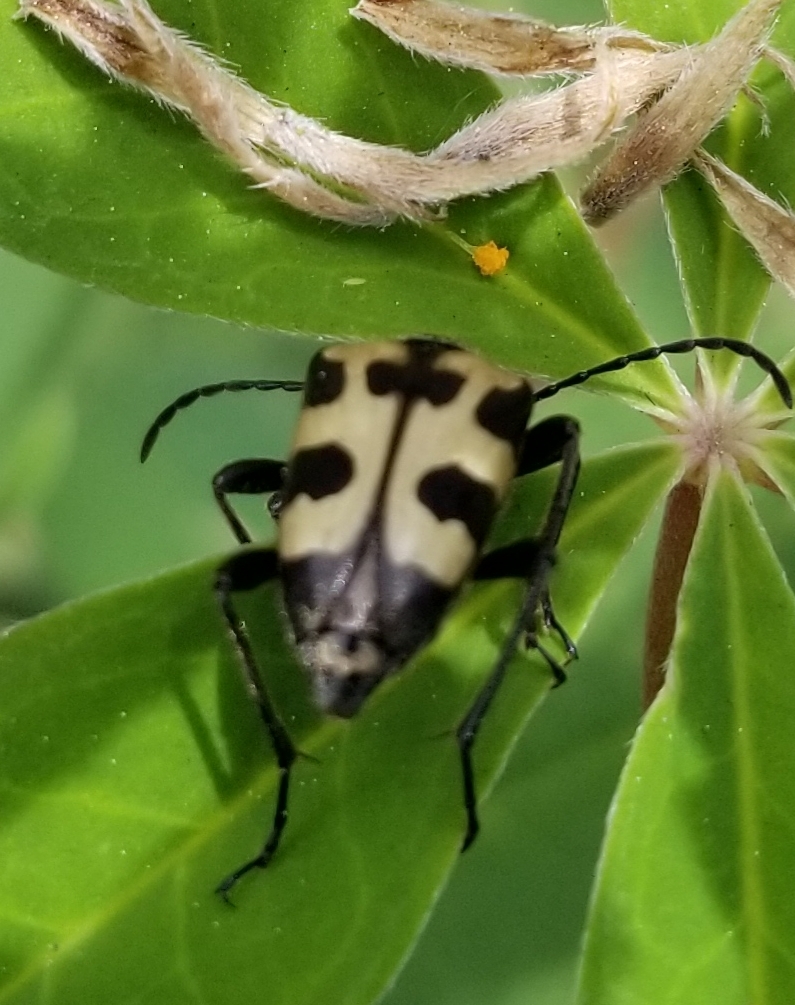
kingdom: Animalia
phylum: Arthropoda
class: Insecta
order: Coleoptera
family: Cerambycidae
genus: Judolia
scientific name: Judolia instabilis
